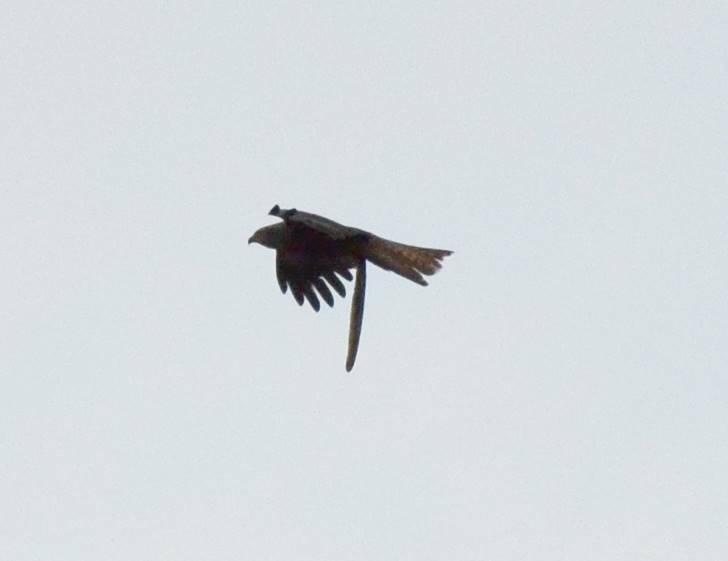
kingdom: Animalia
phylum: Chordata
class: Aves
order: Accipitriformes
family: Accipitridae
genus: Milvus
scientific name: Milvus migrans
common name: Black kite
